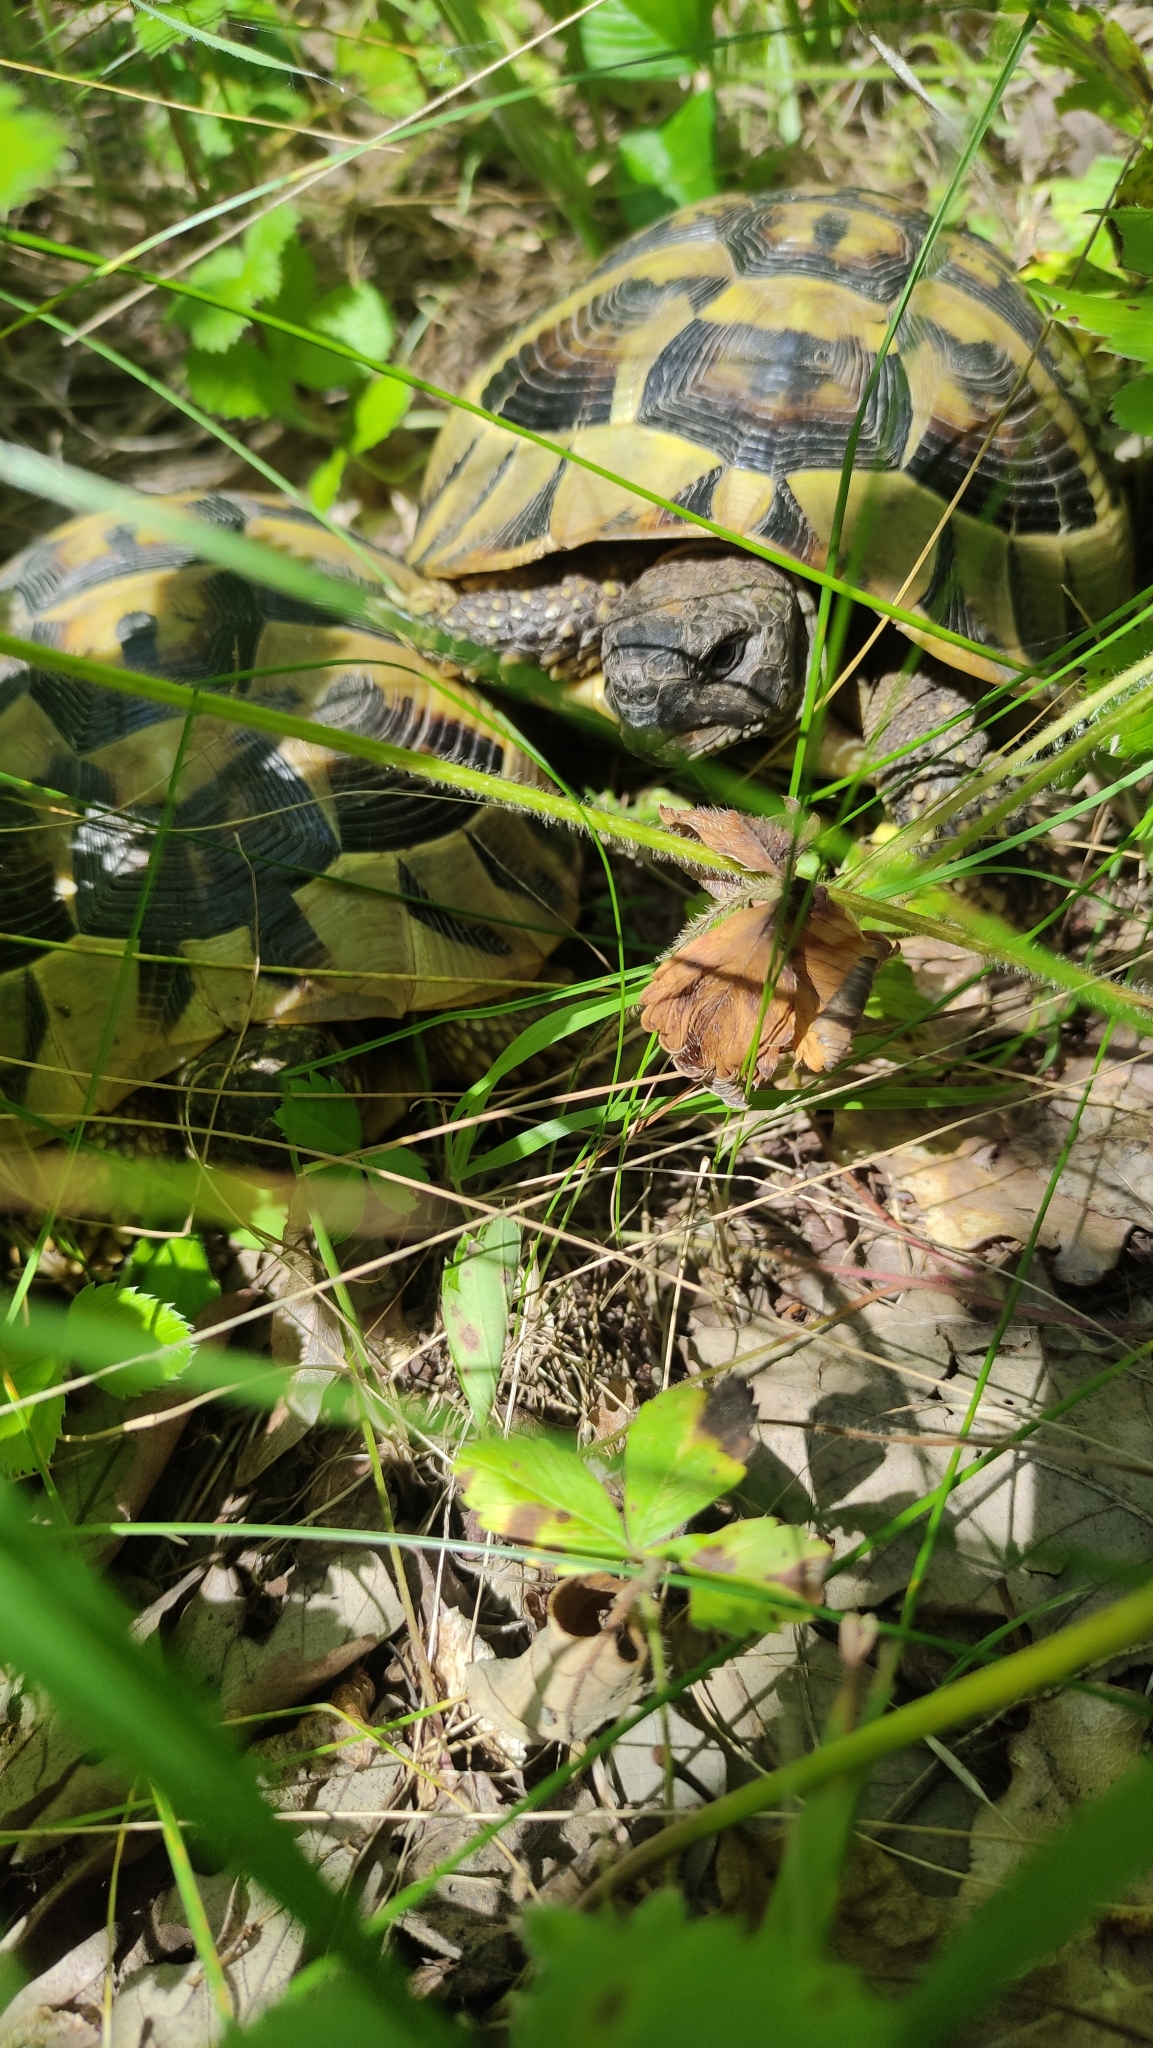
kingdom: Animalia
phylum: Chordata
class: Testudines
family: Testudinidae
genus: Testudo
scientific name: Testudo hermanni
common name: Hermann's tortoise
